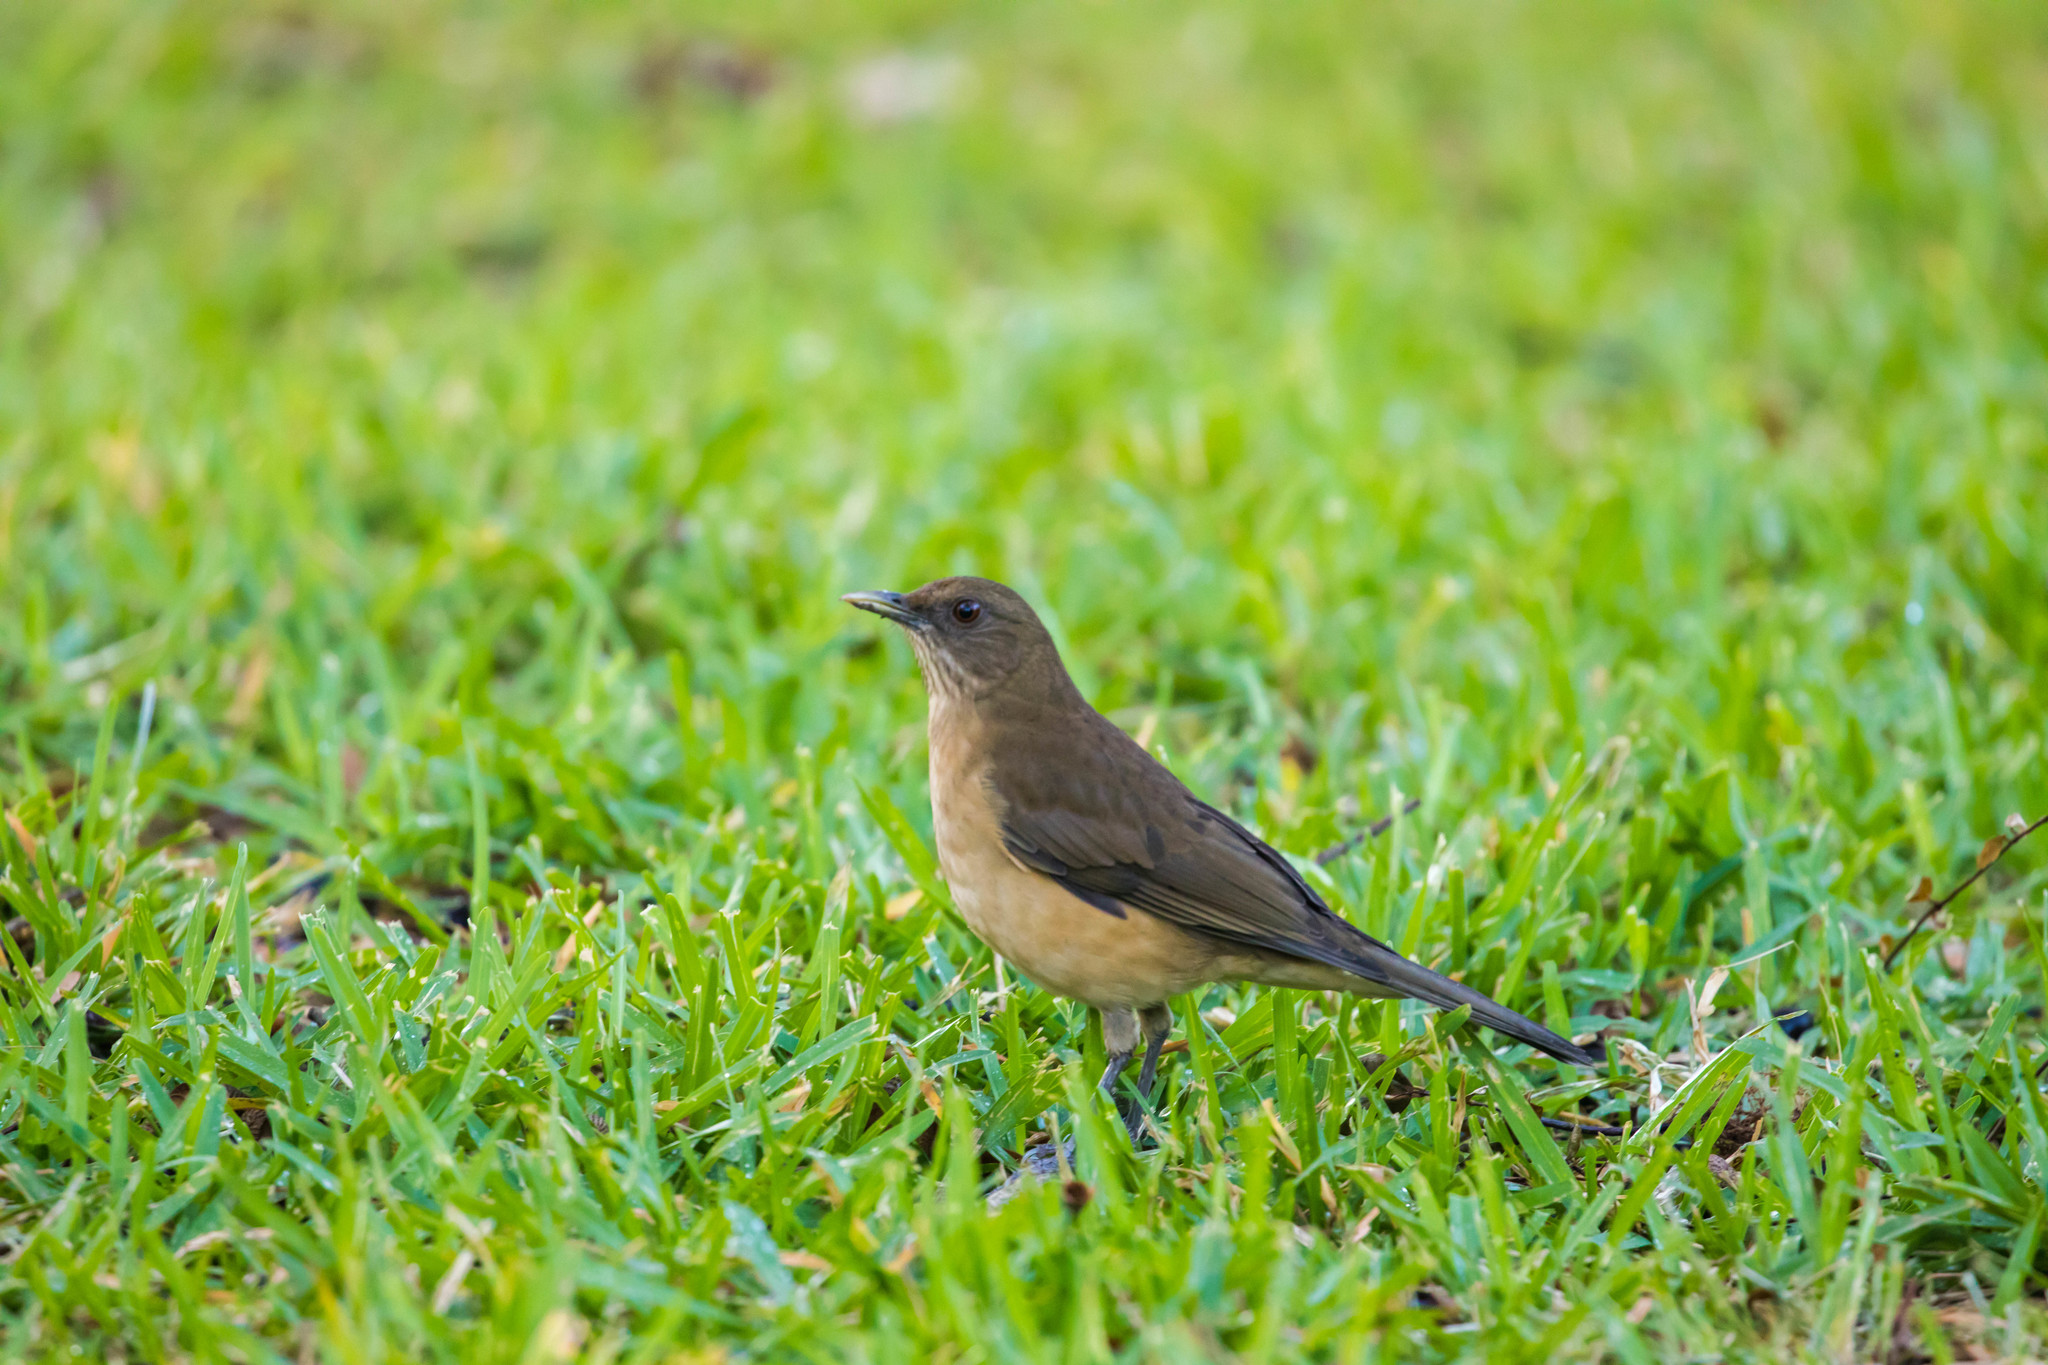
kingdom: Animalia
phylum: Chordata
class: Aves
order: Passeriformes
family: Turdidae
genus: Turdus
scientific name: Turdus grayi
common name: Clay-colored thrush
